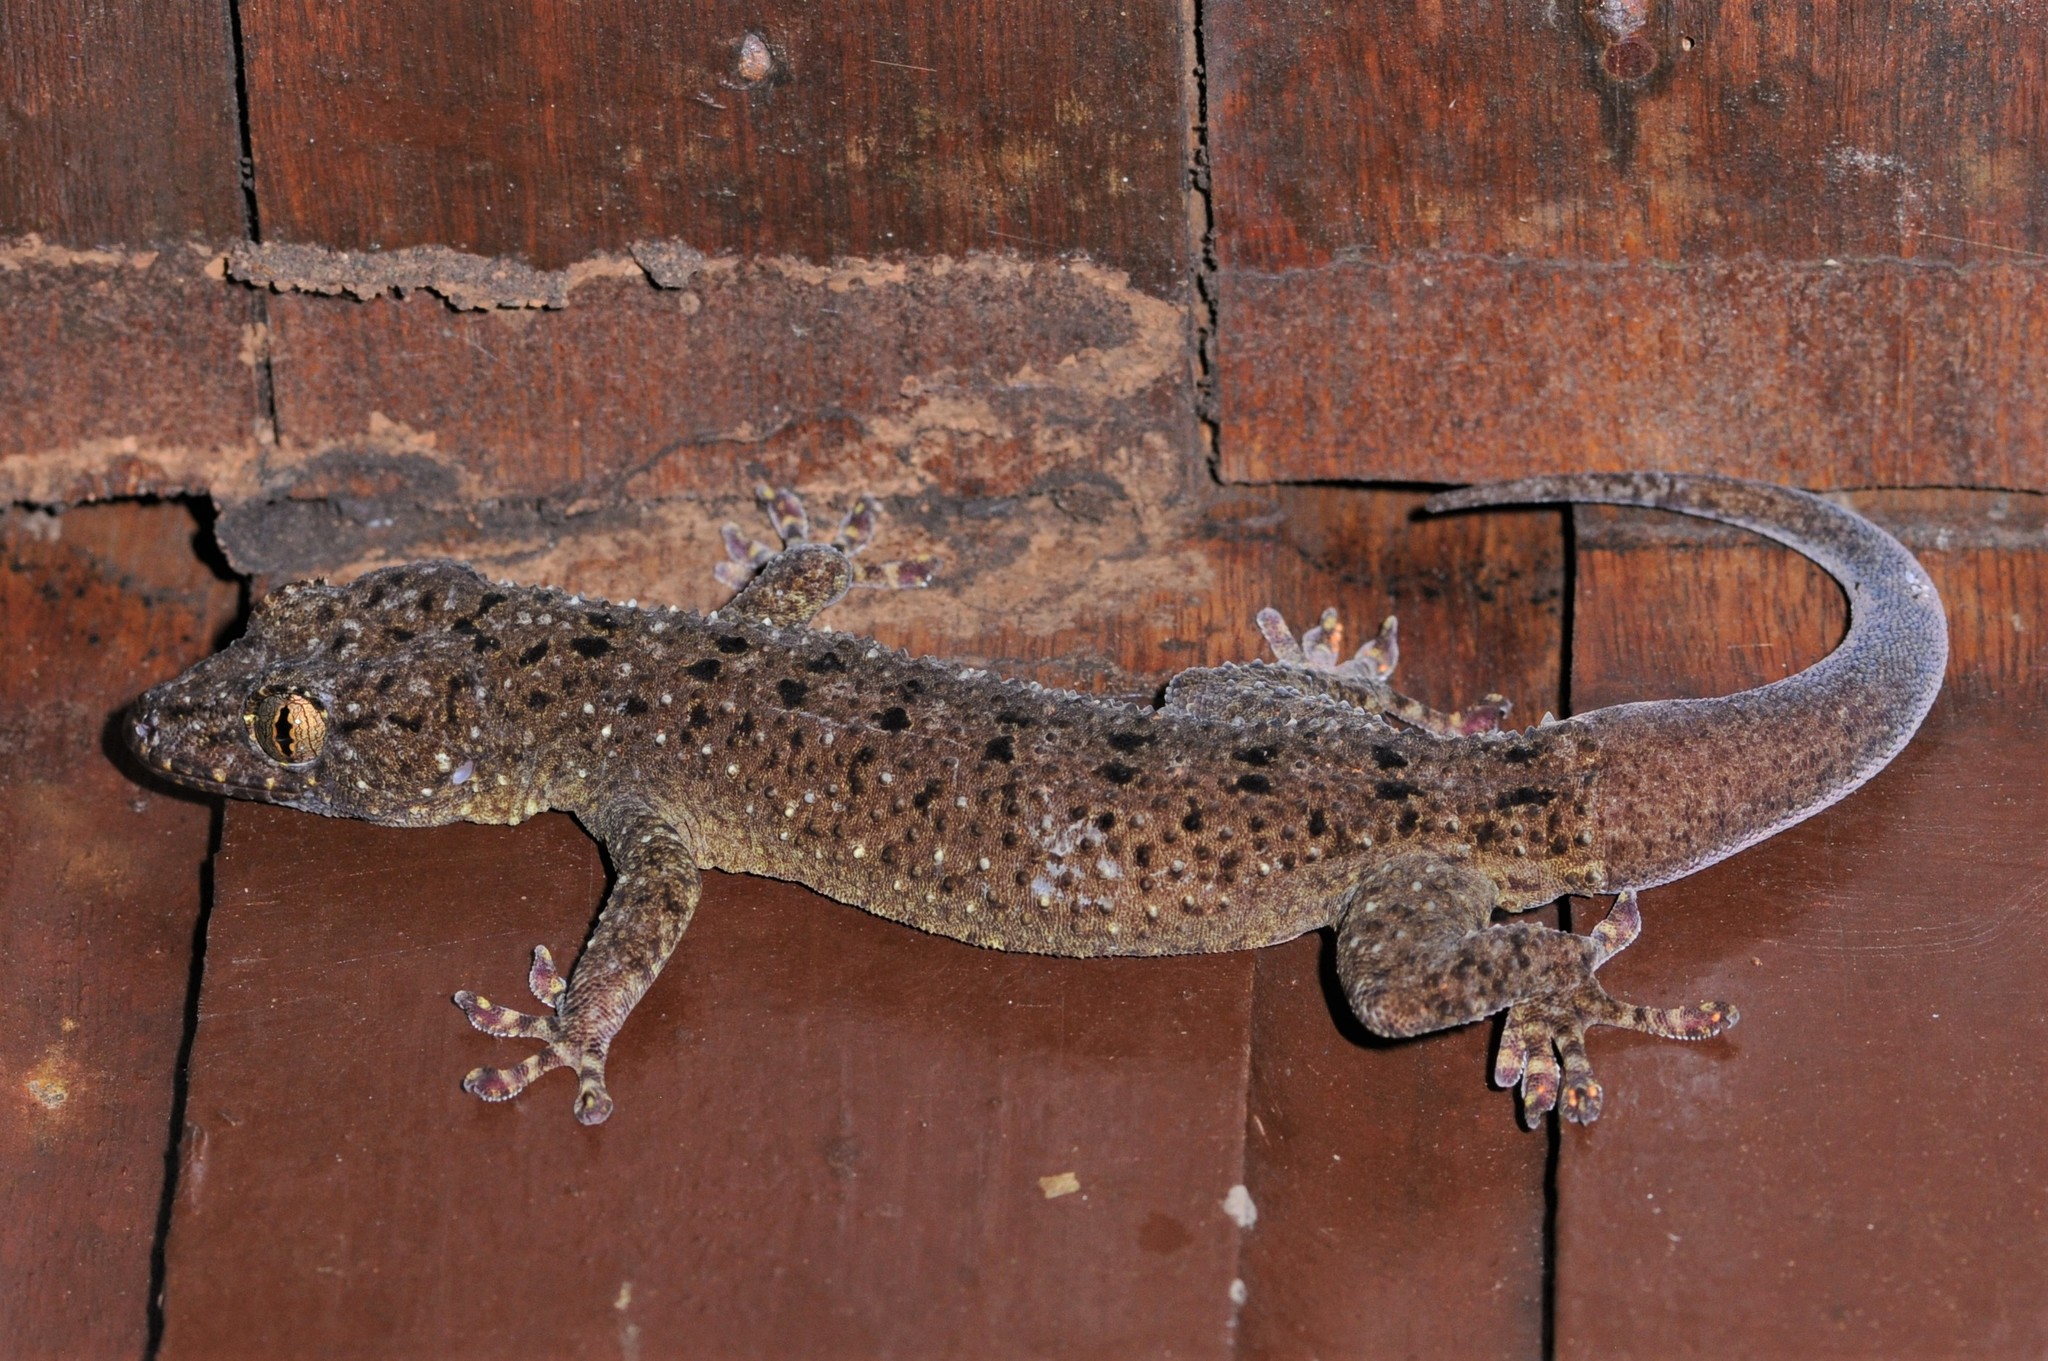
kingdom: Animalia
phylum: Chordata
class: Squamata
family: Gekkonidae
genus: Gekko
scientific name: Gekko monarchus
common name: Spotted house gecko
